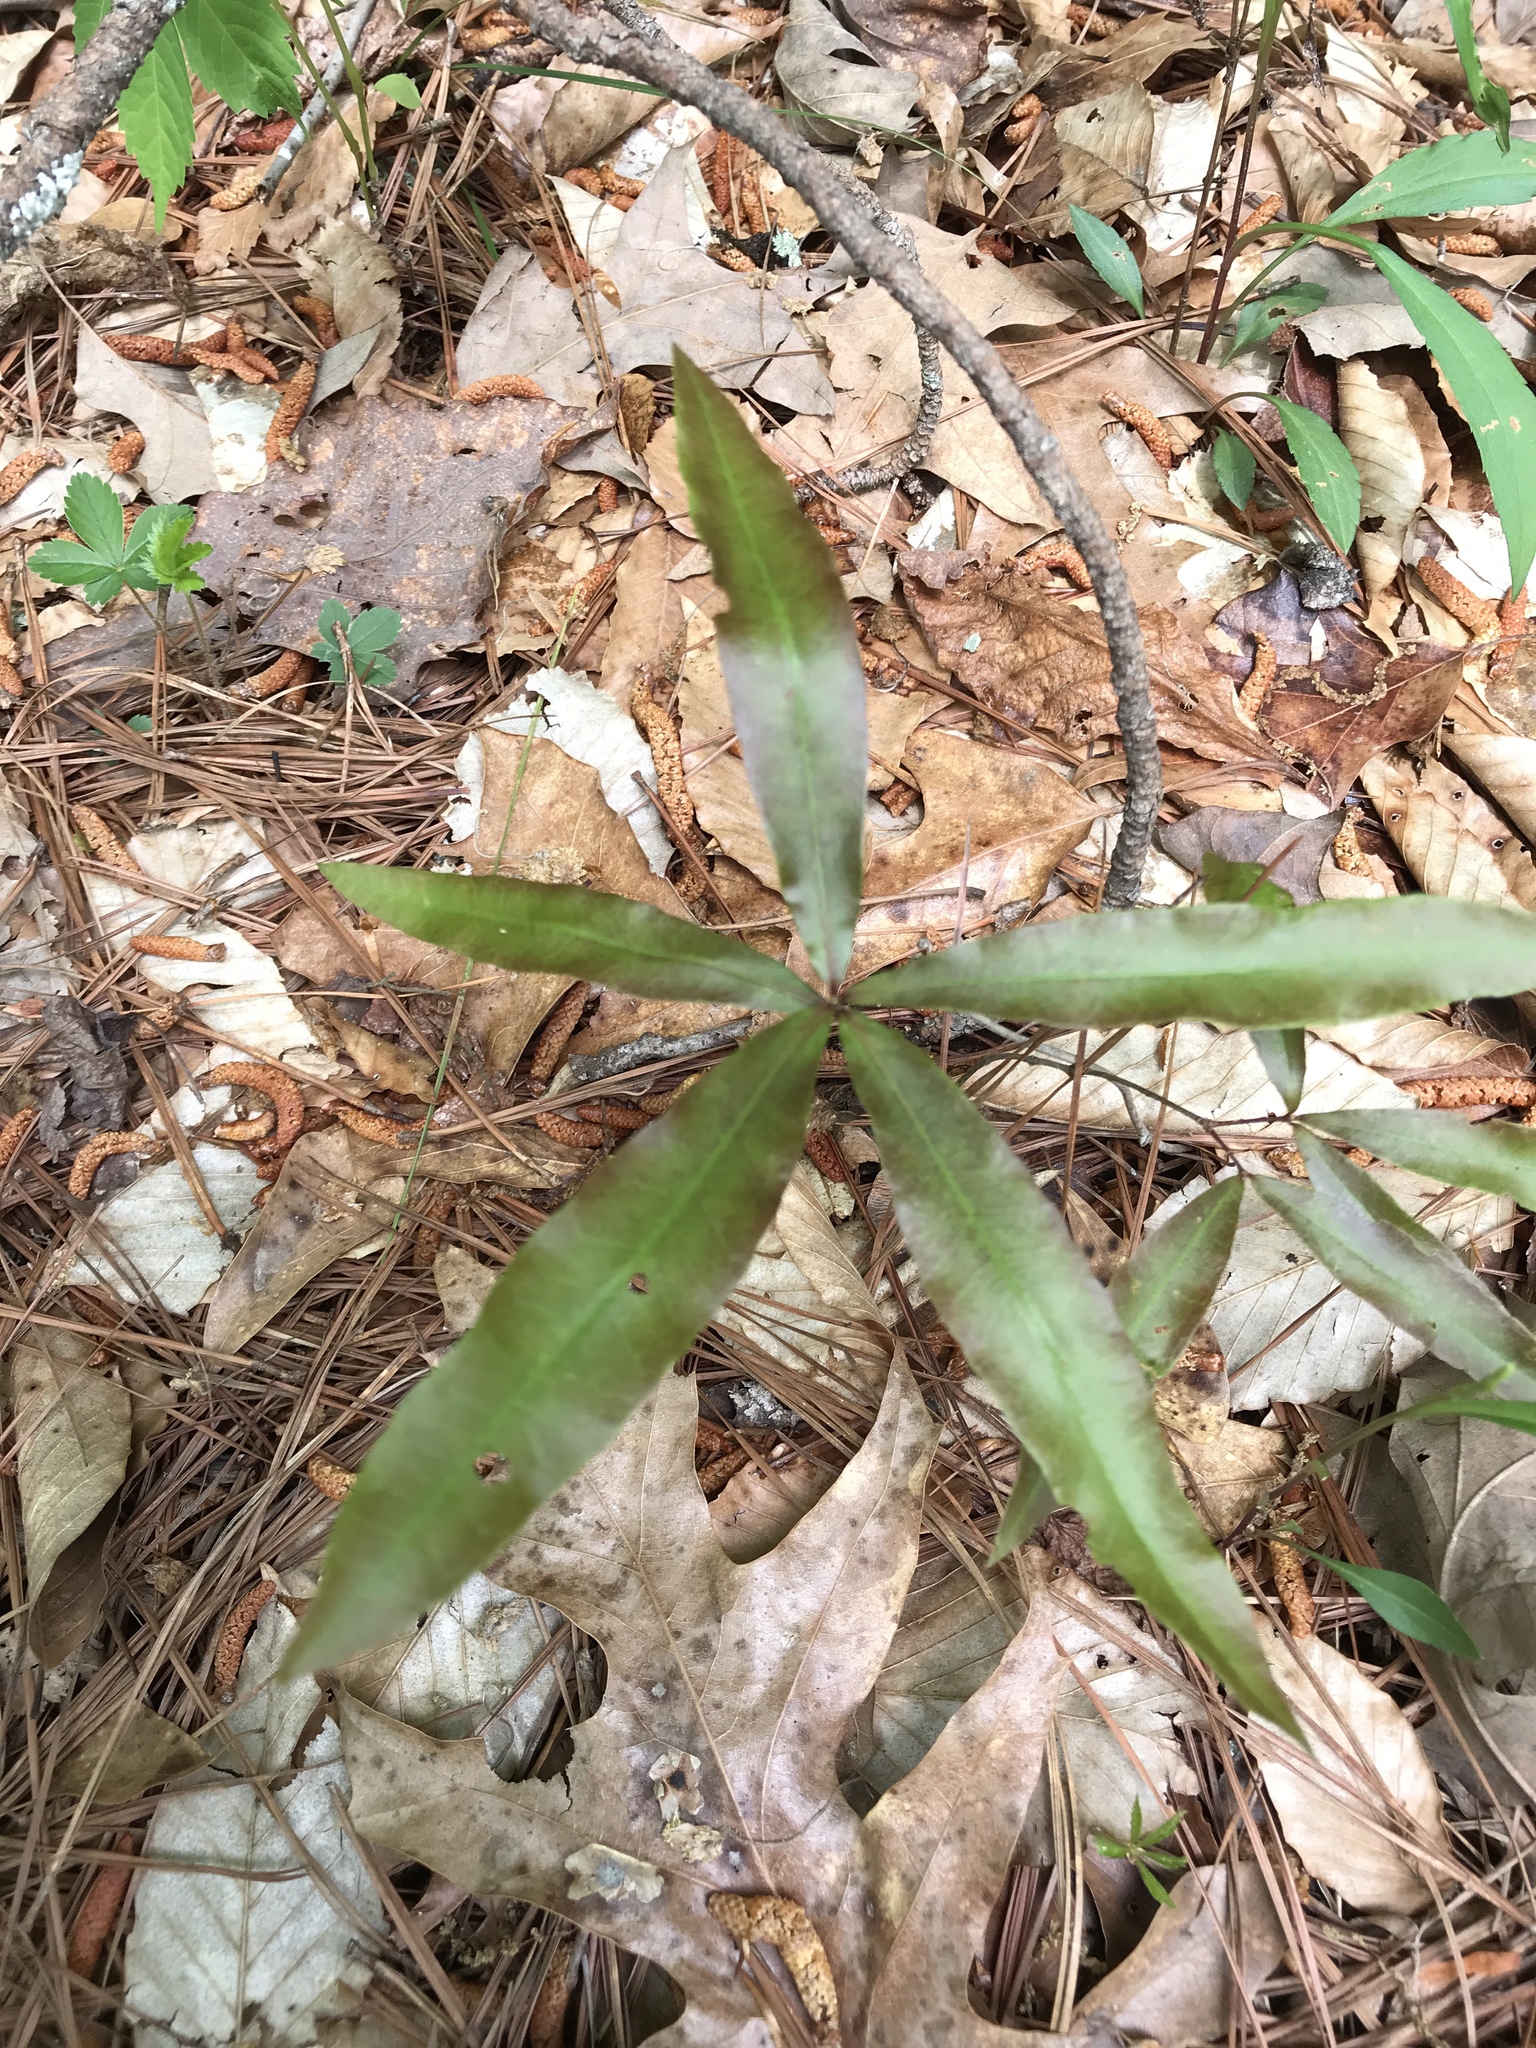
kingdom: Plantae
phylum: Tracheophyta
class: Magnoliopsida
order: Fagales
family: Fagaceae
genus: Quercus
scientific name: Quercus phellos
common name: Willow oak
